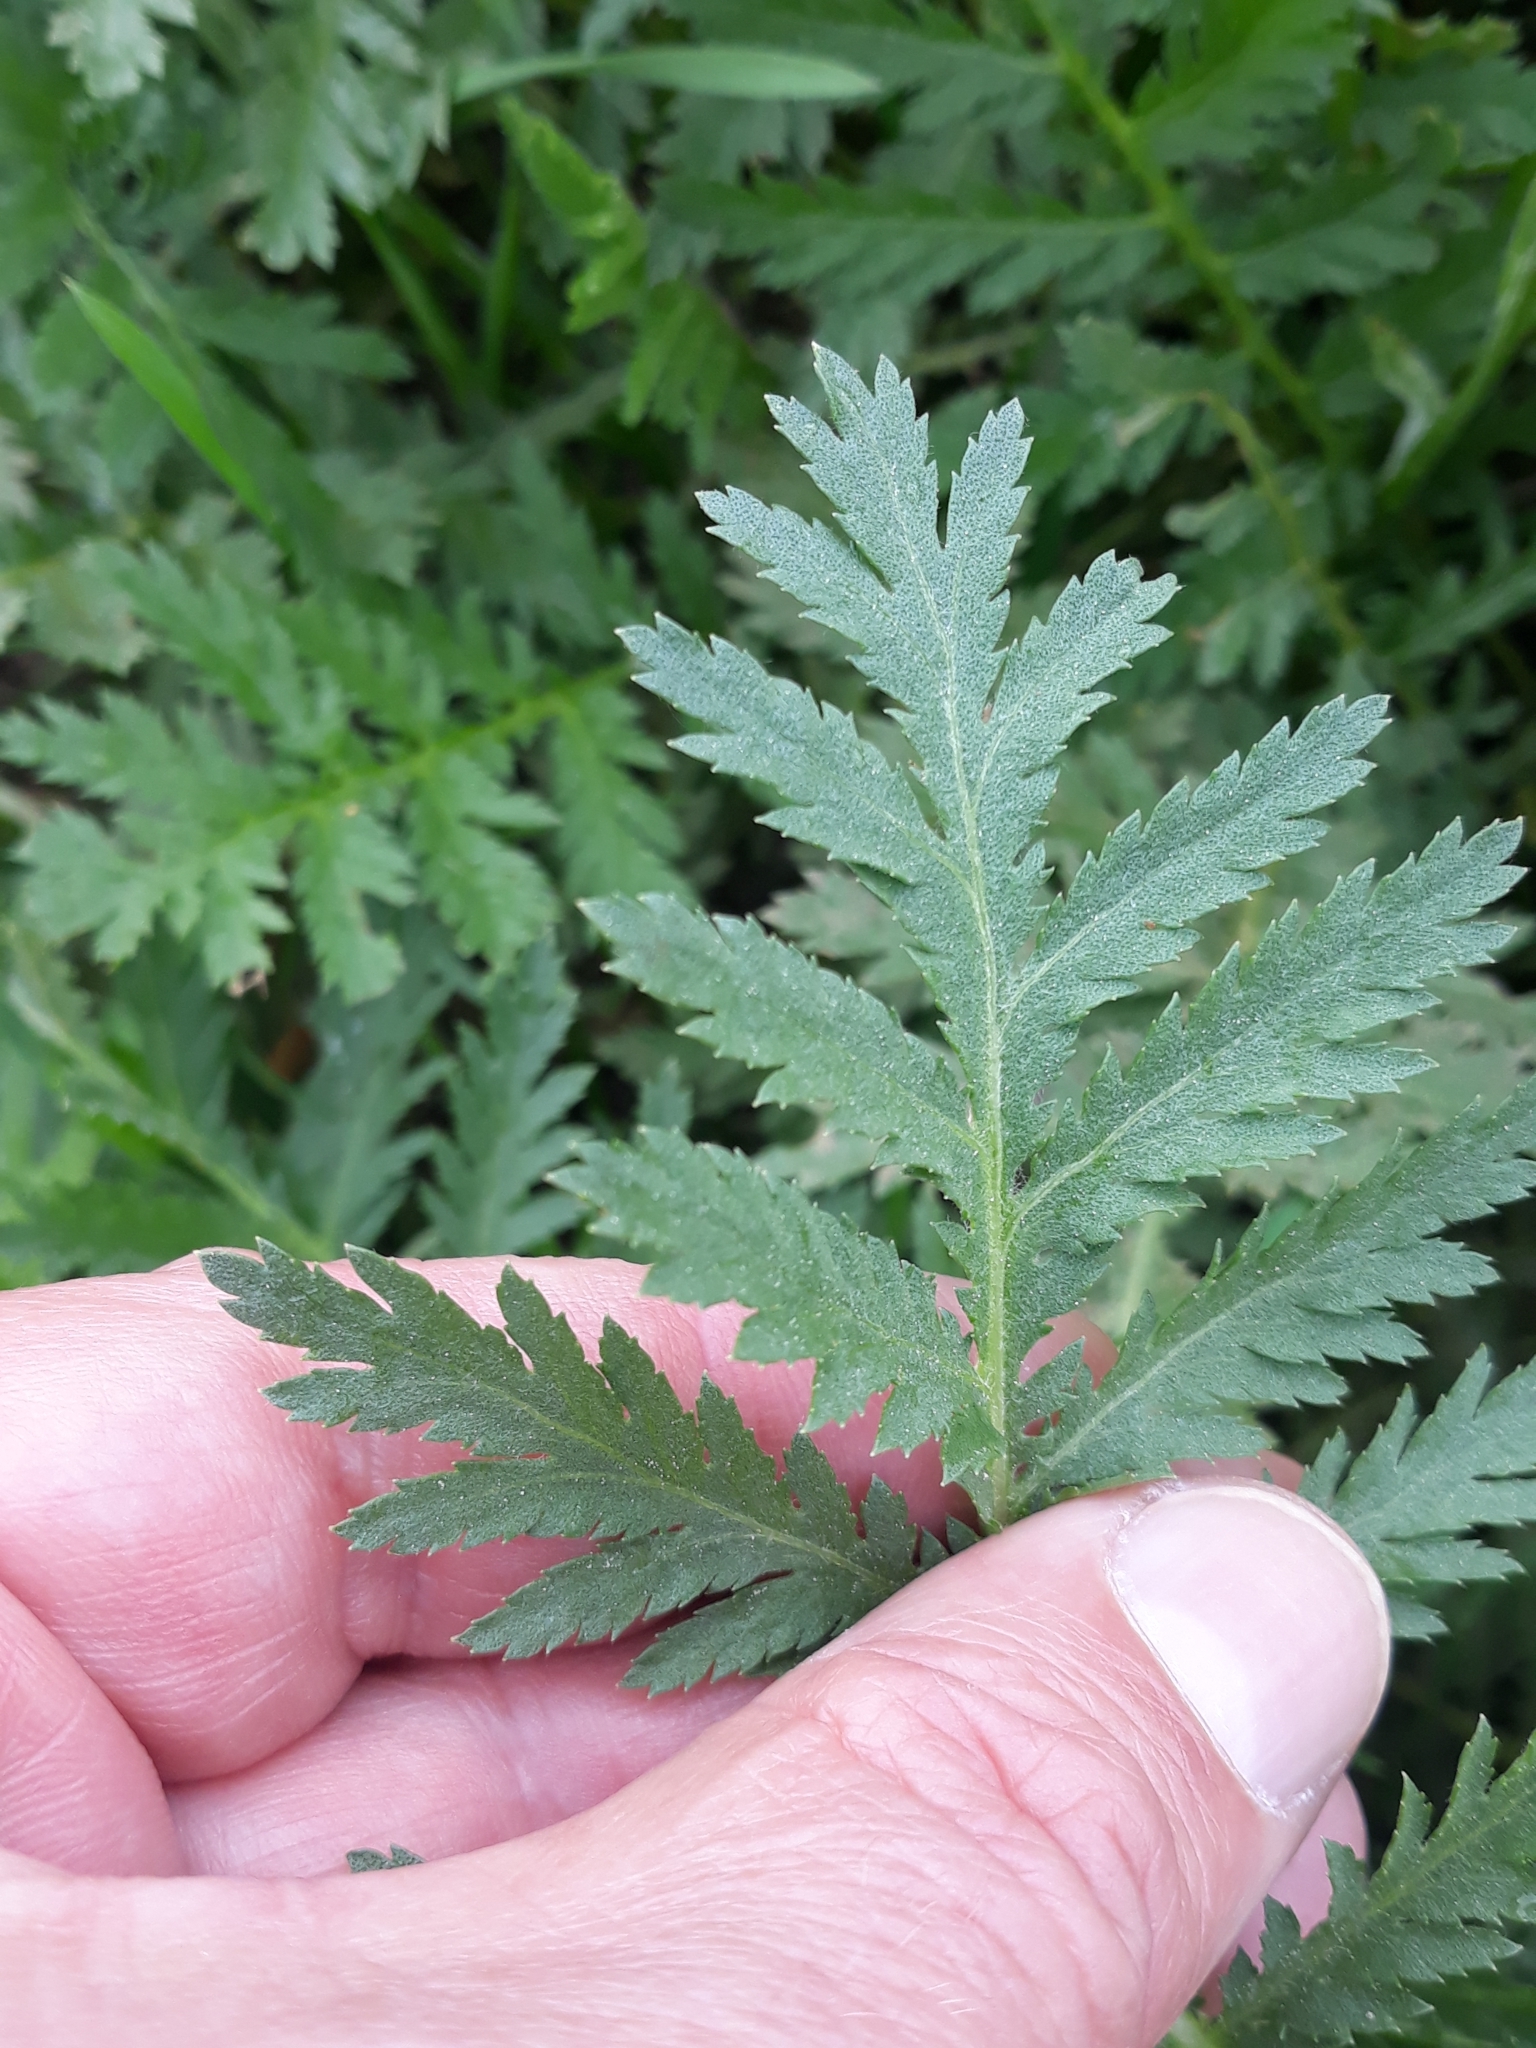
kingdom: Plantae
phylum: Tracheophyta
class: Magnoliopsida
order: Asterales
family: Asteraceae
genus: Tanacetum
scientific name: Tanacetum vulgare
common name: Common tansy
